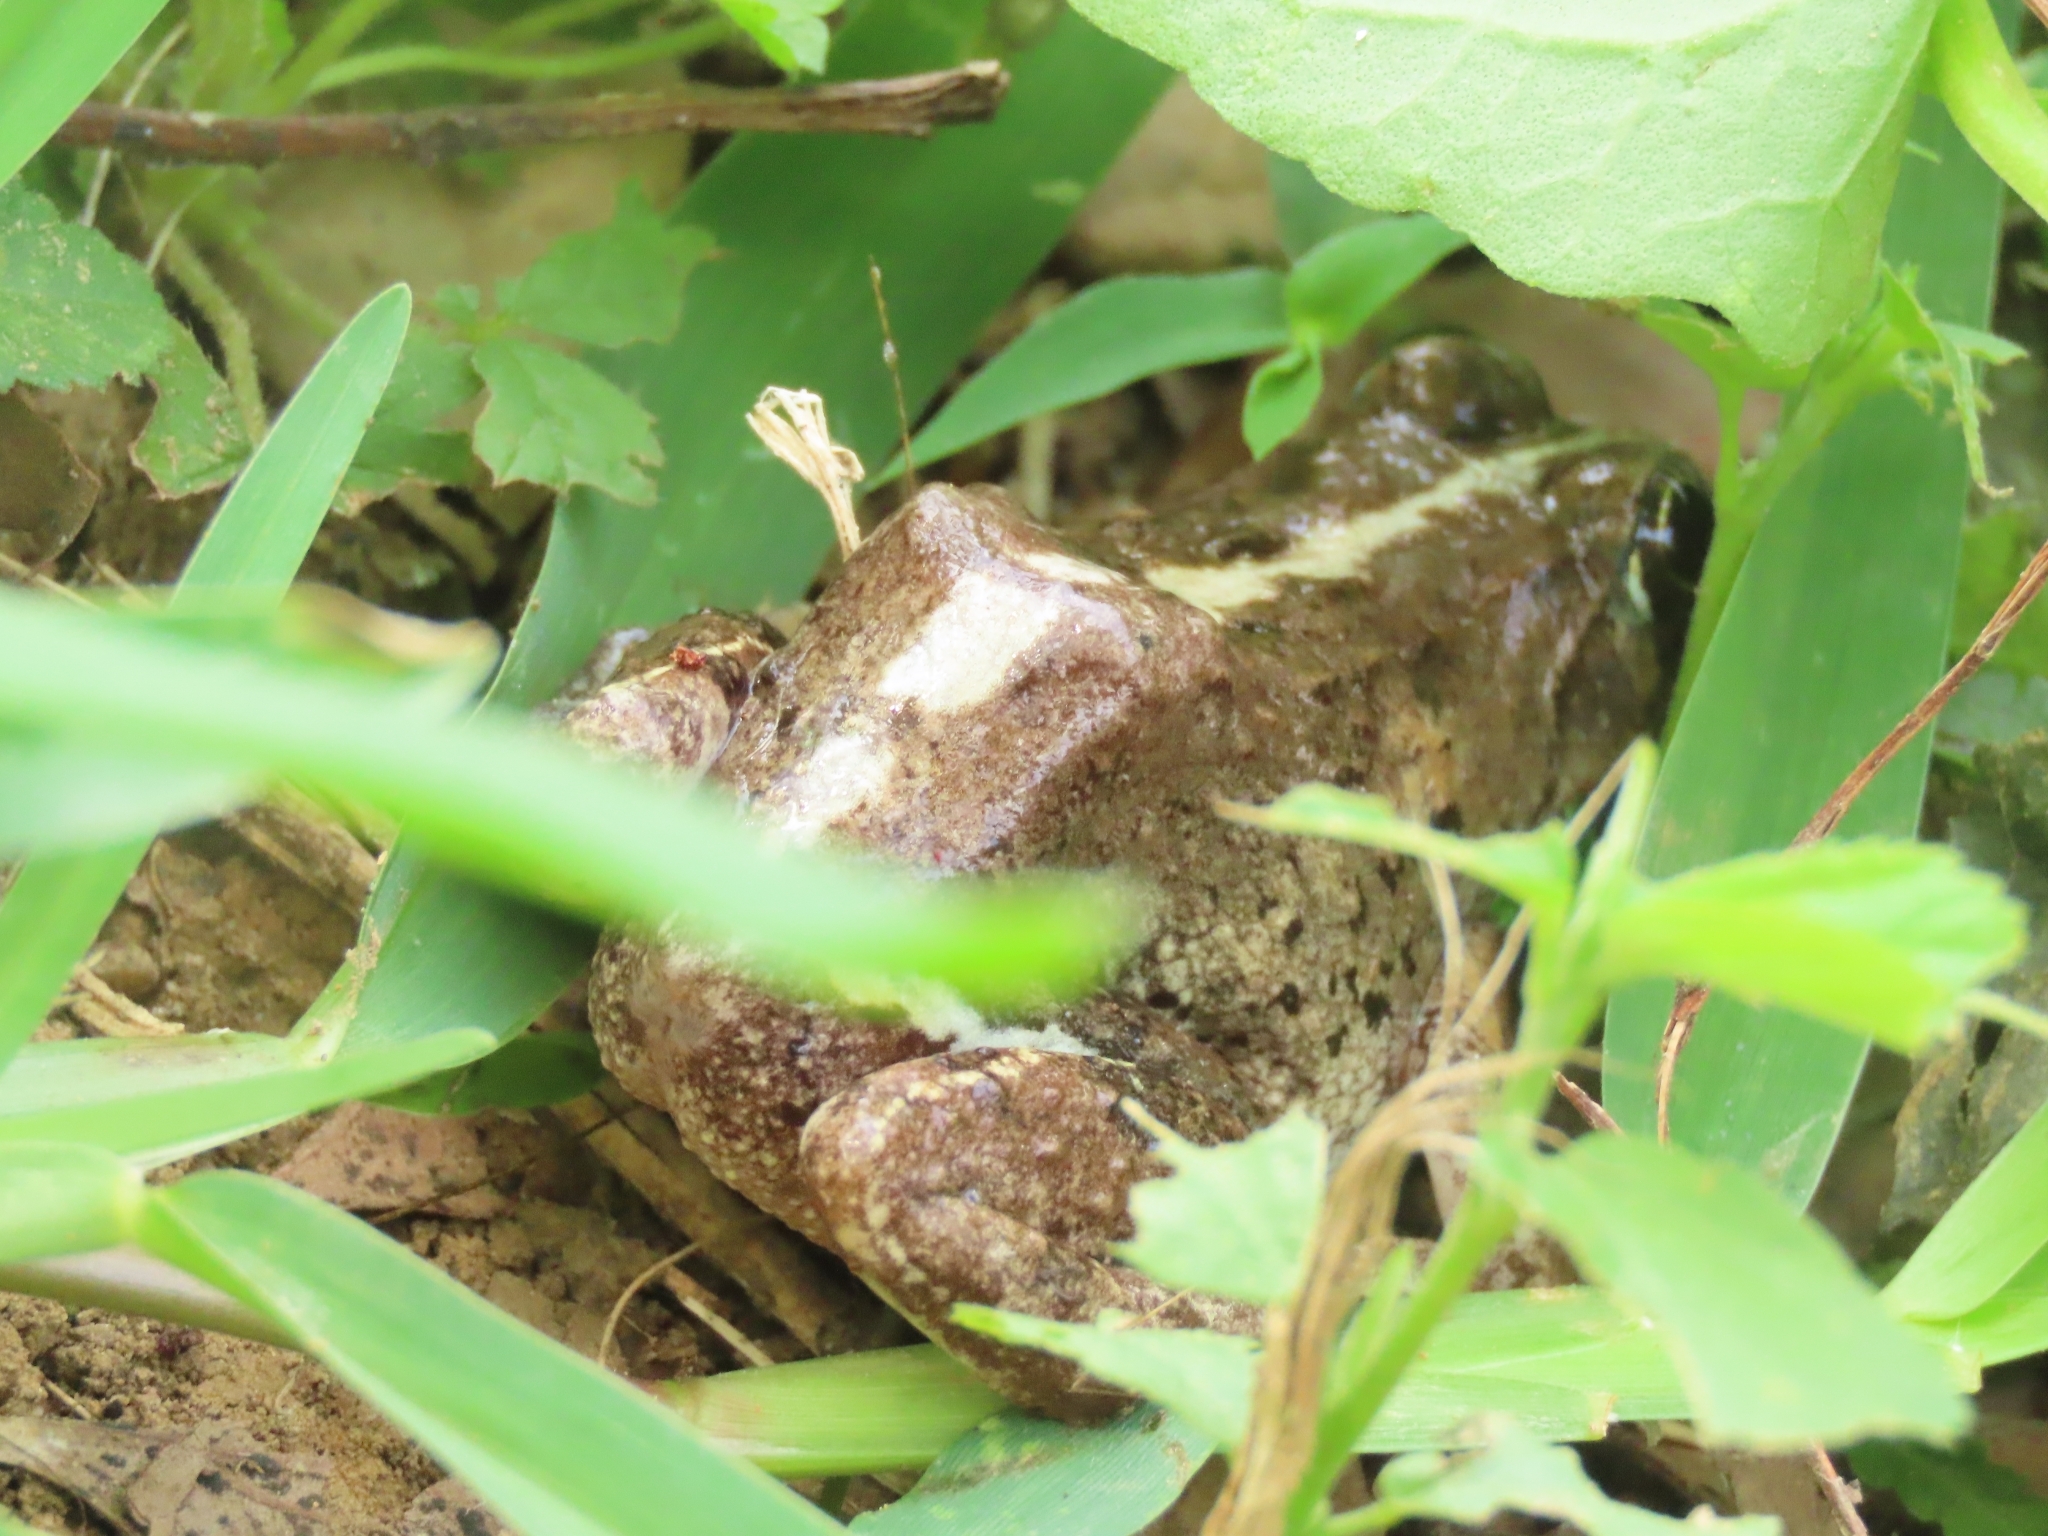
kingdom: Animalia
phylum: Chordata
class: Amphibia
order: Anura
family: Dicroglossidae
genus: Fejervarya
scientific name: Fejervarya limnocharis
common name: Asian grass frog/common pond frog/field frog/grass frog/indian rice frog
